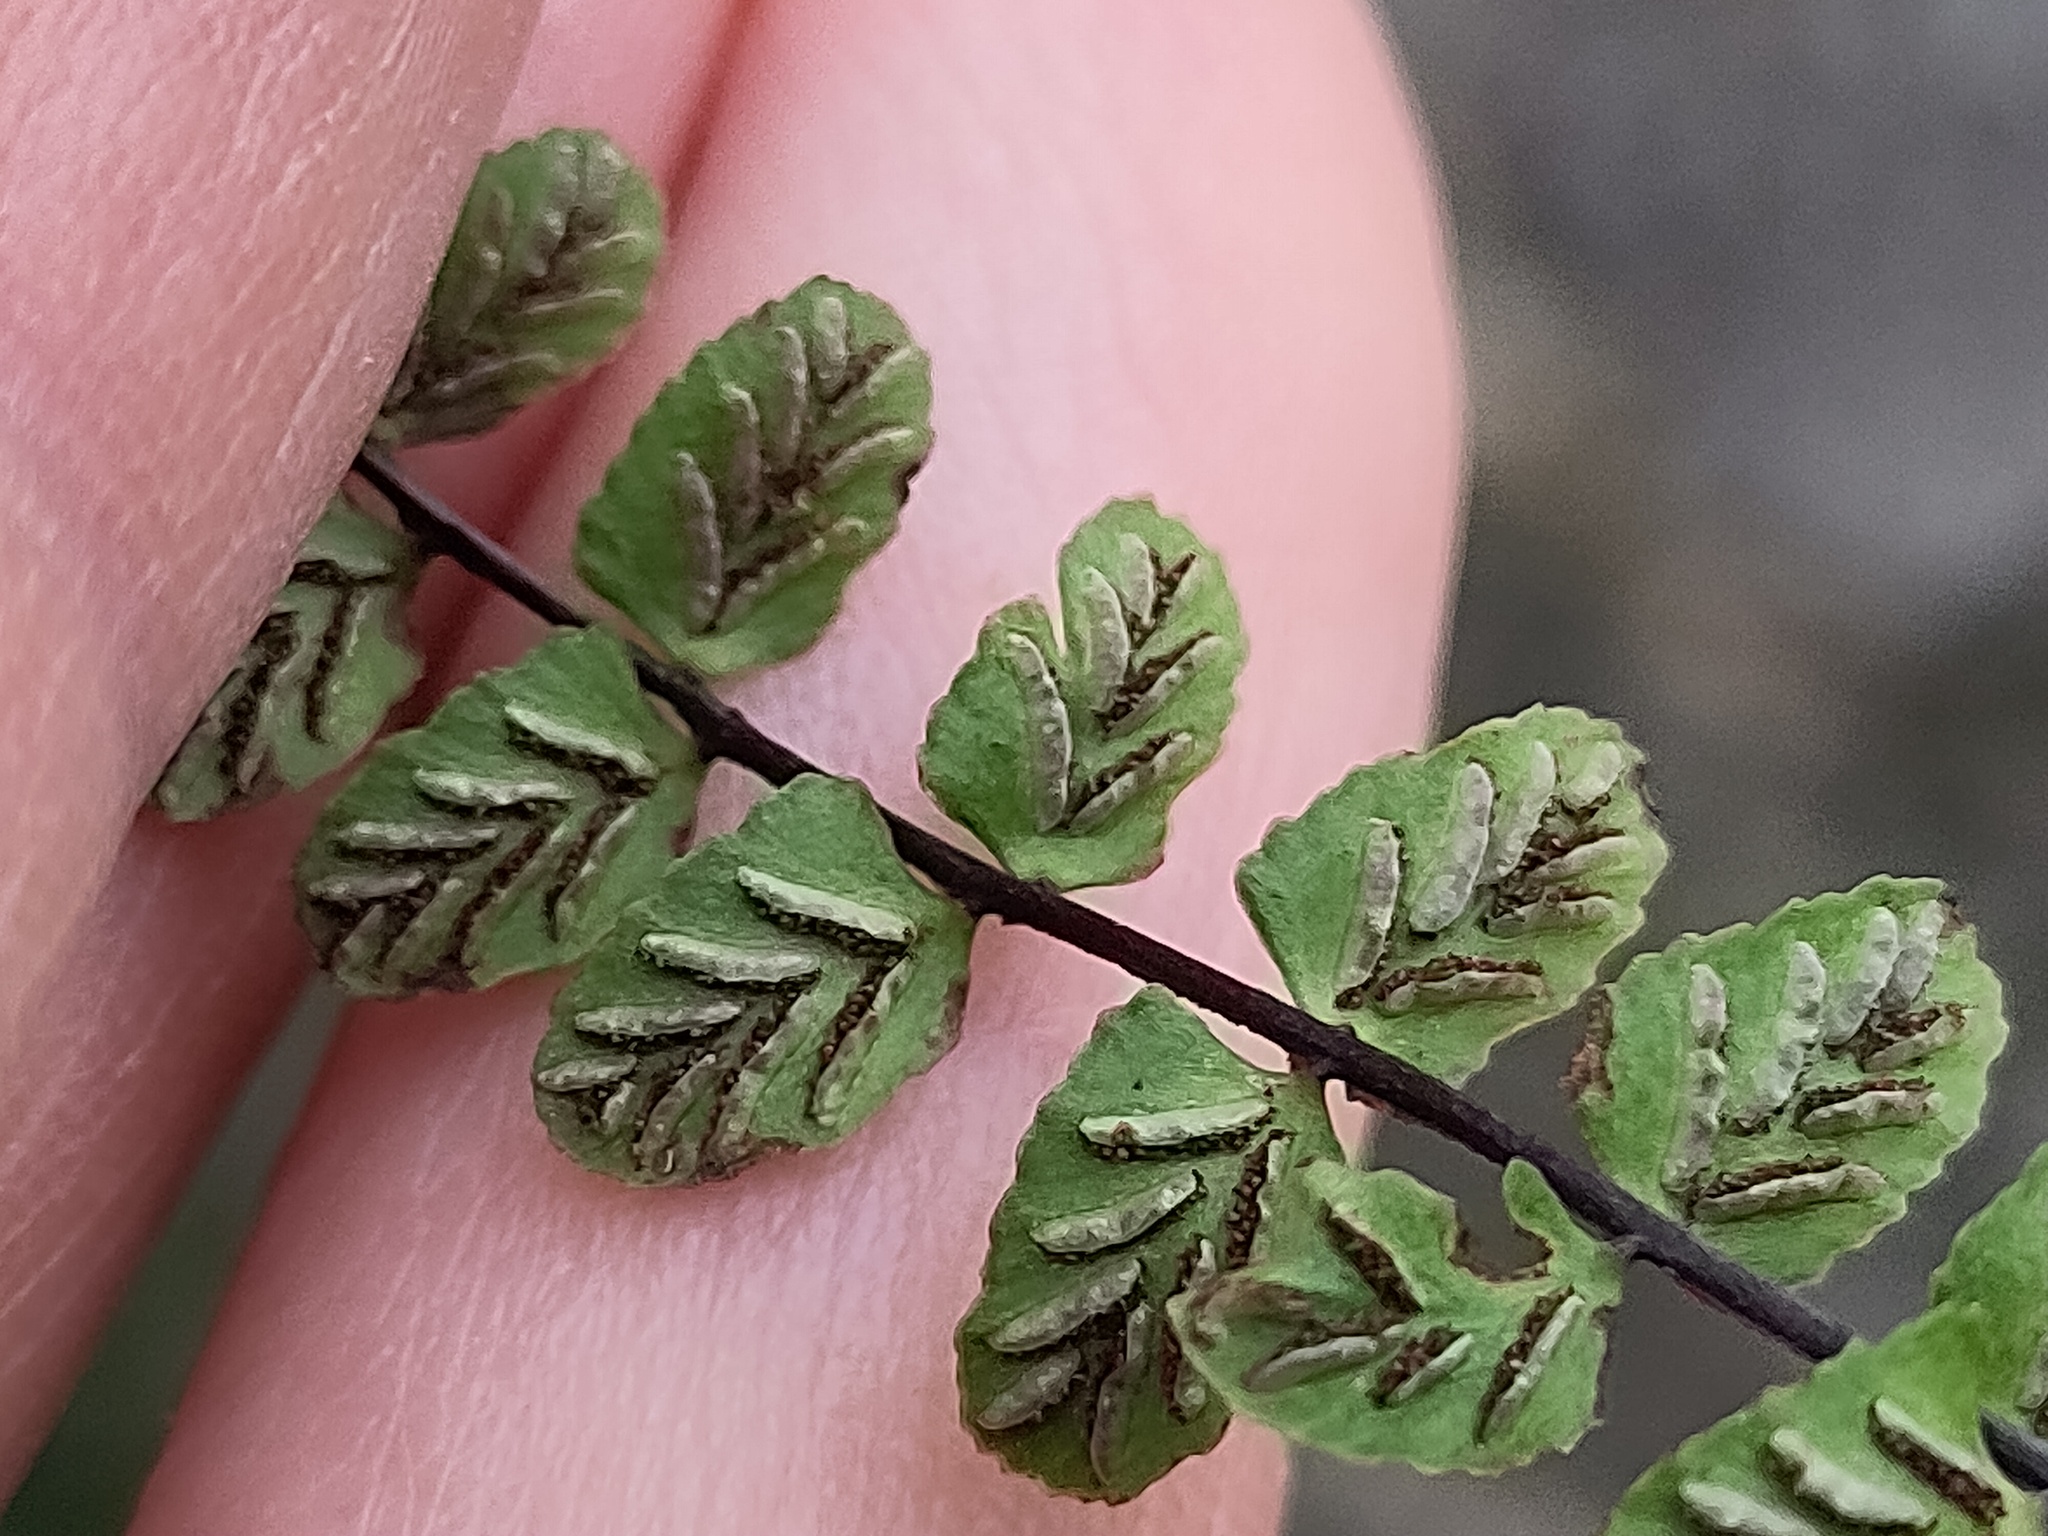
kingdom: Plantae
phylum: Tracheophyta
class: Polypodiopsida
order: Polypodiales
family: Aspleniaceae
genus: Asplenium
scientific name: Asplenium trichomanes
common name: Maidenhair spleenwort
